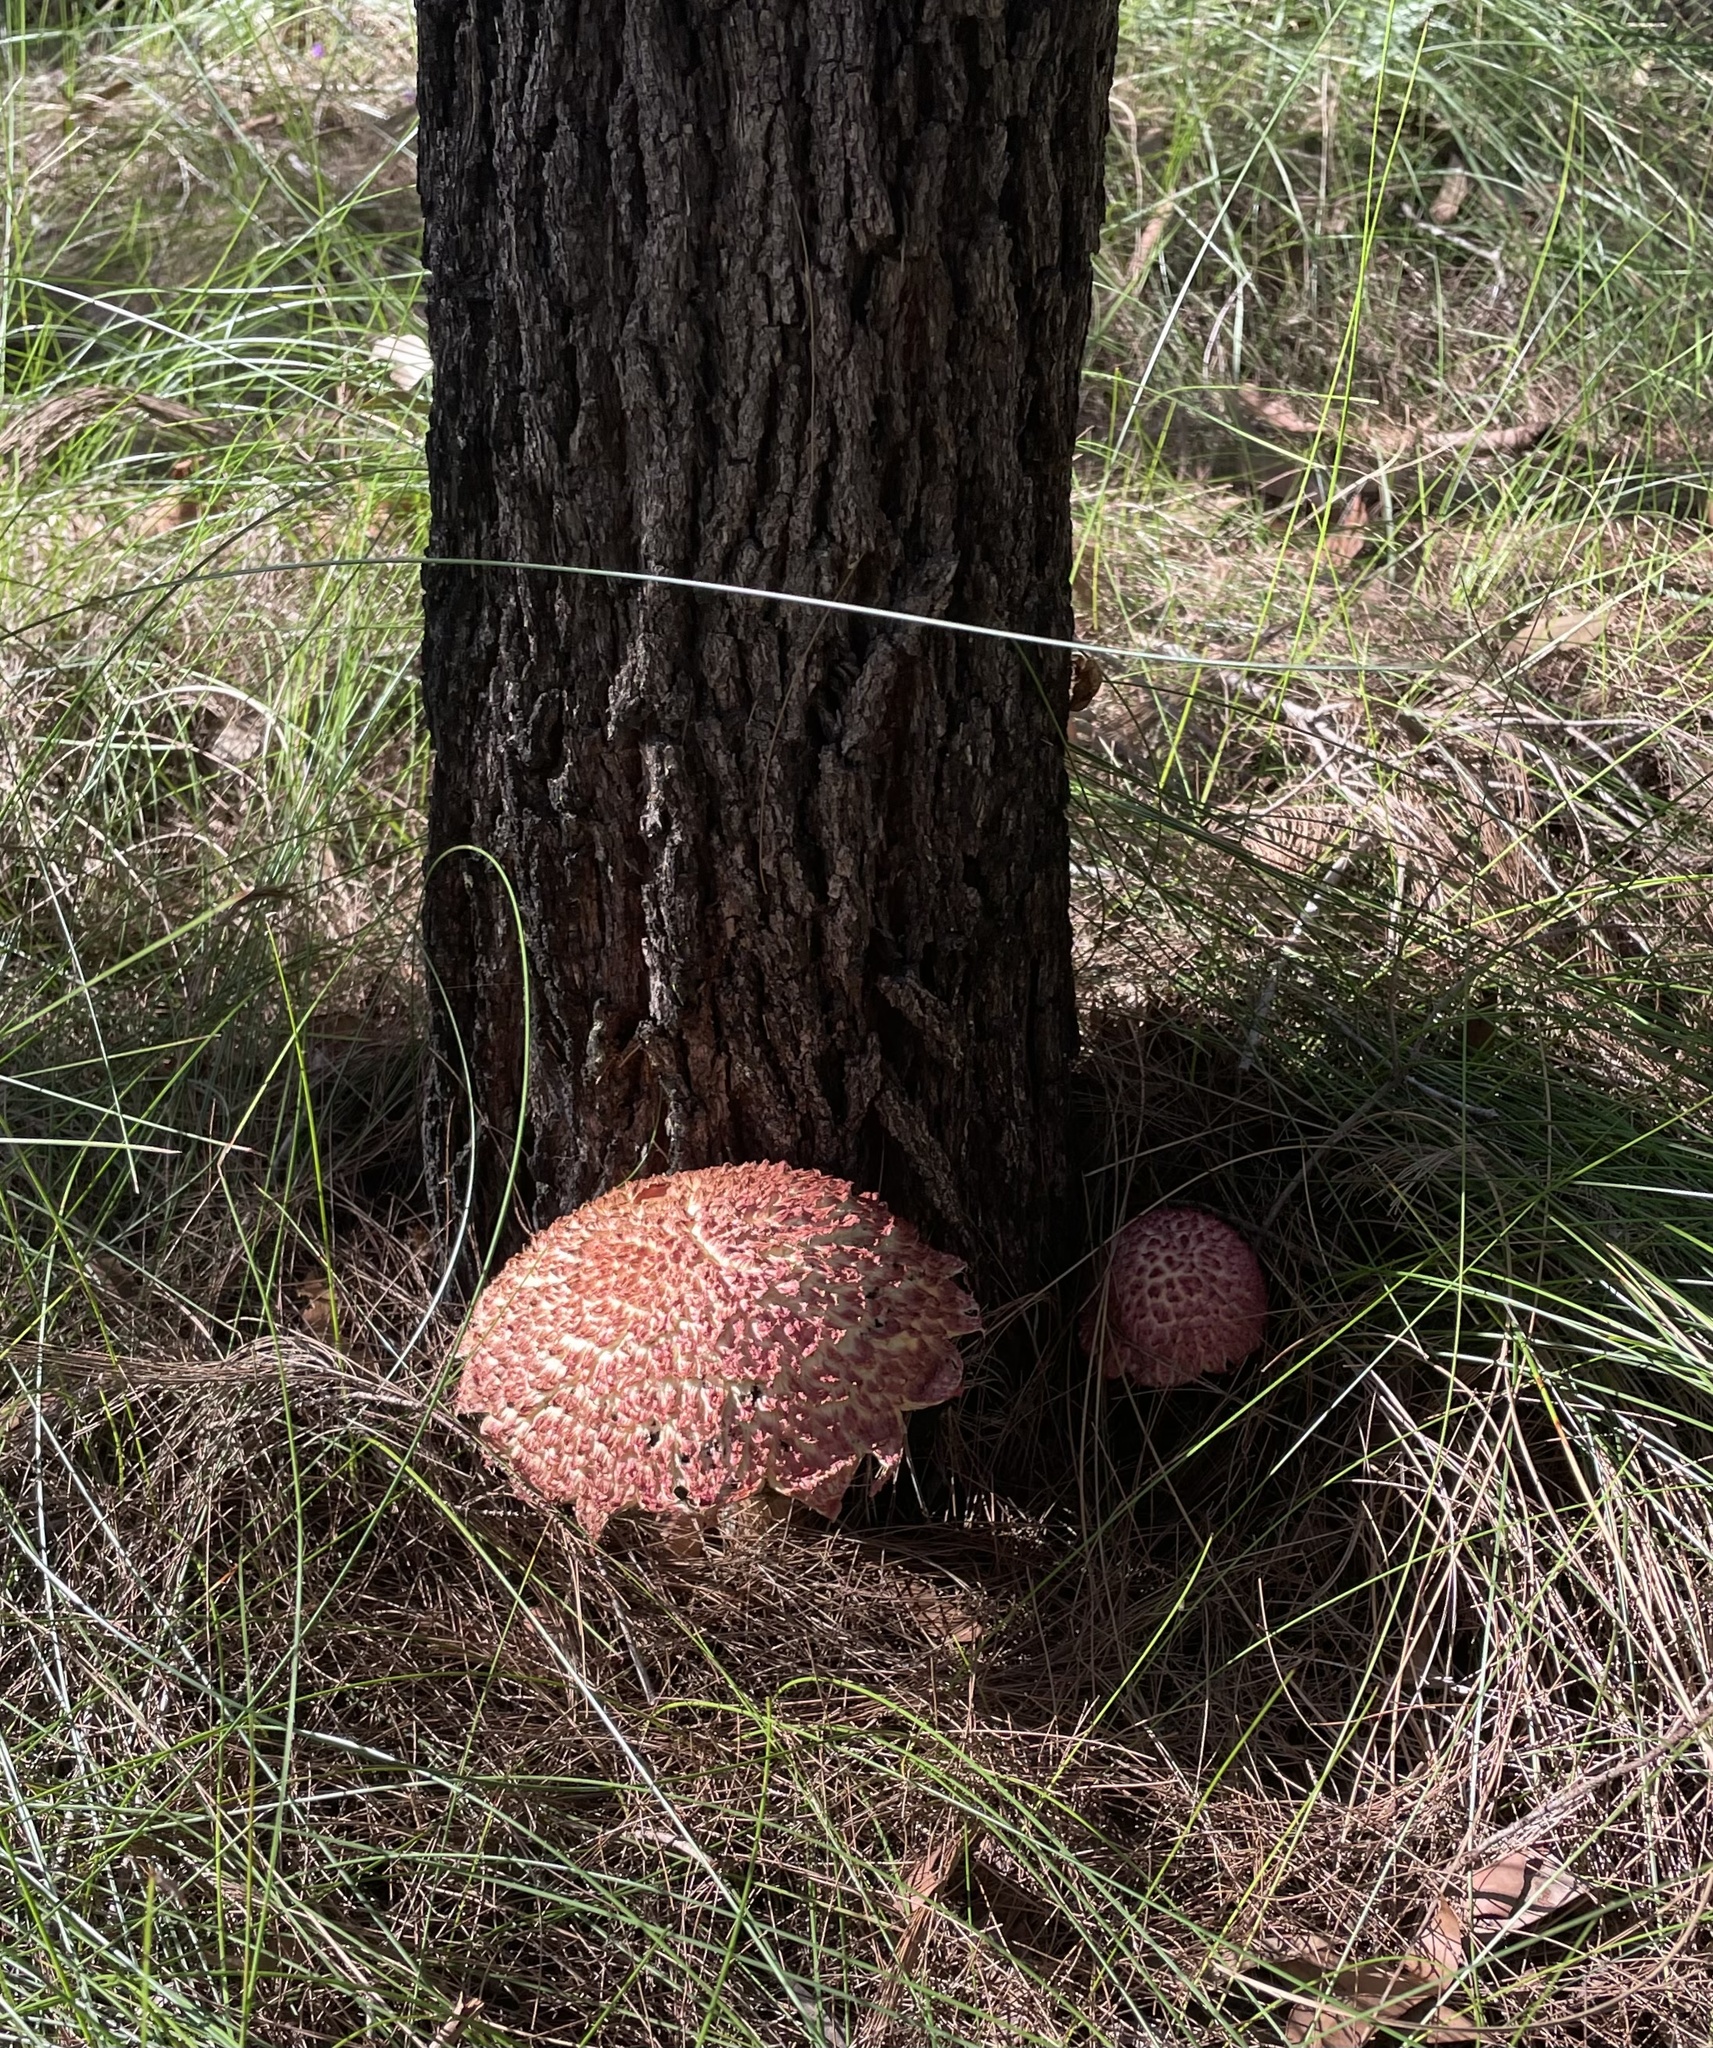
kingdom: Fungi
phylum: Basidiomycota
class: Agaricomycetes
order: Boletales
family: Boletaceae
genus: Boletellus
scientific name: Boletellus emodensis
